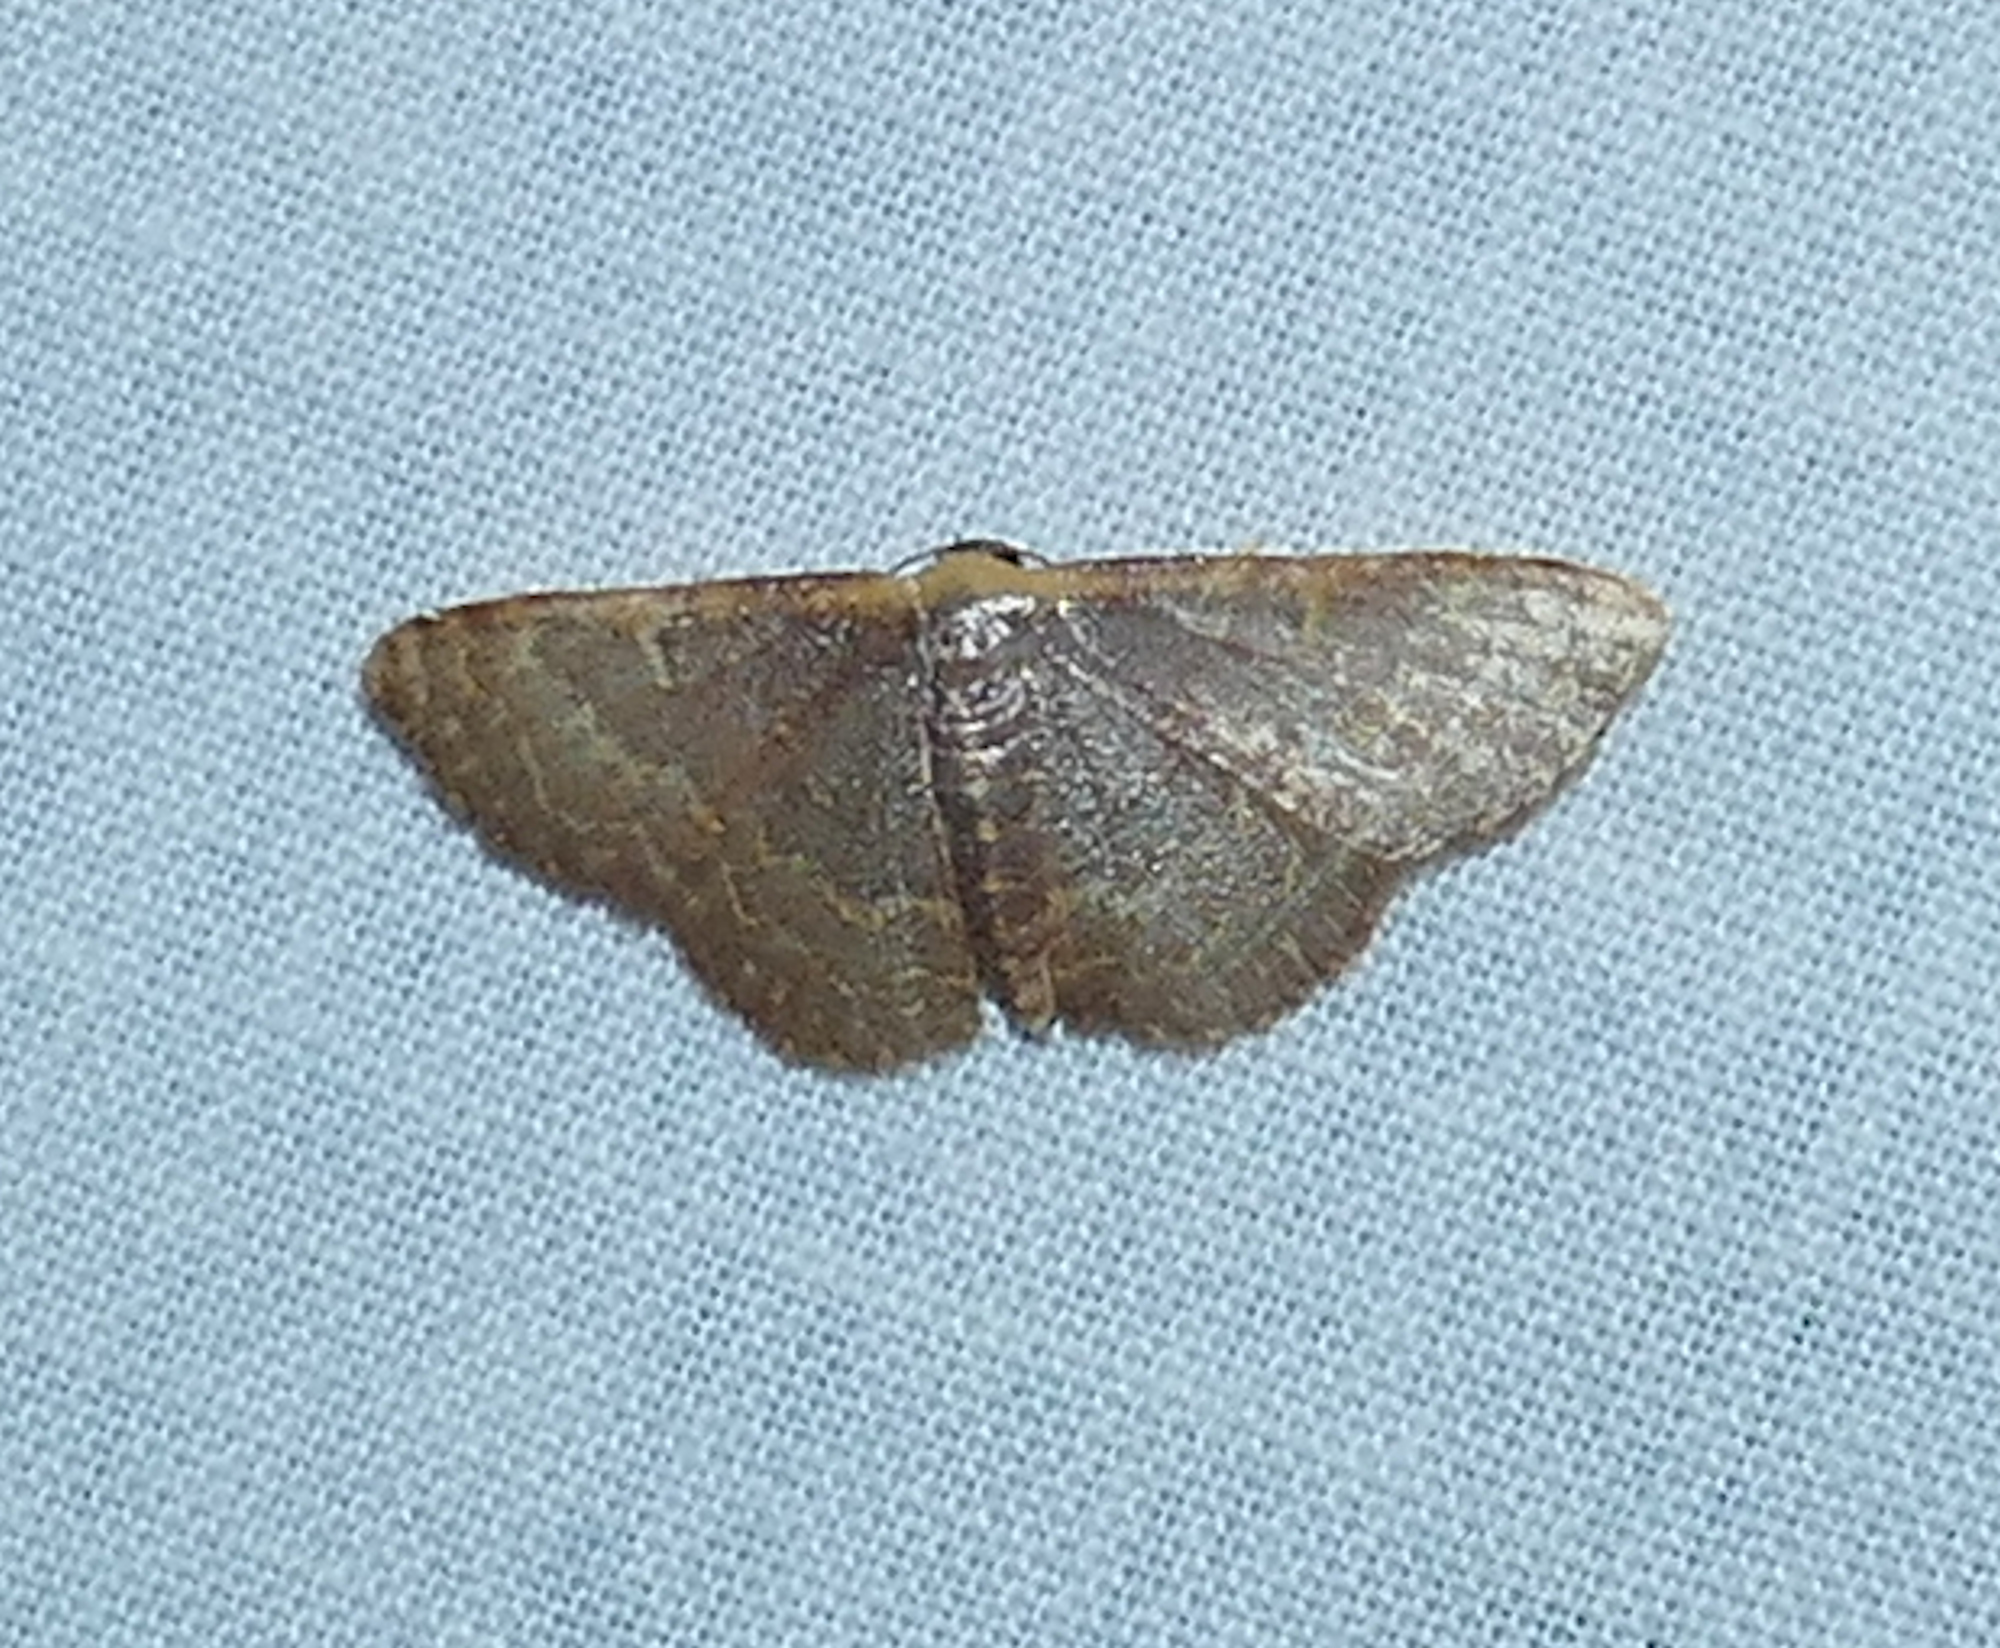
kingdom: Animalia
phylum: Arthropoda
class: Insecta
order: Lepidoptera
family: Geometridae
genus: Leptostales
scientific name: Leptostales pannaria
